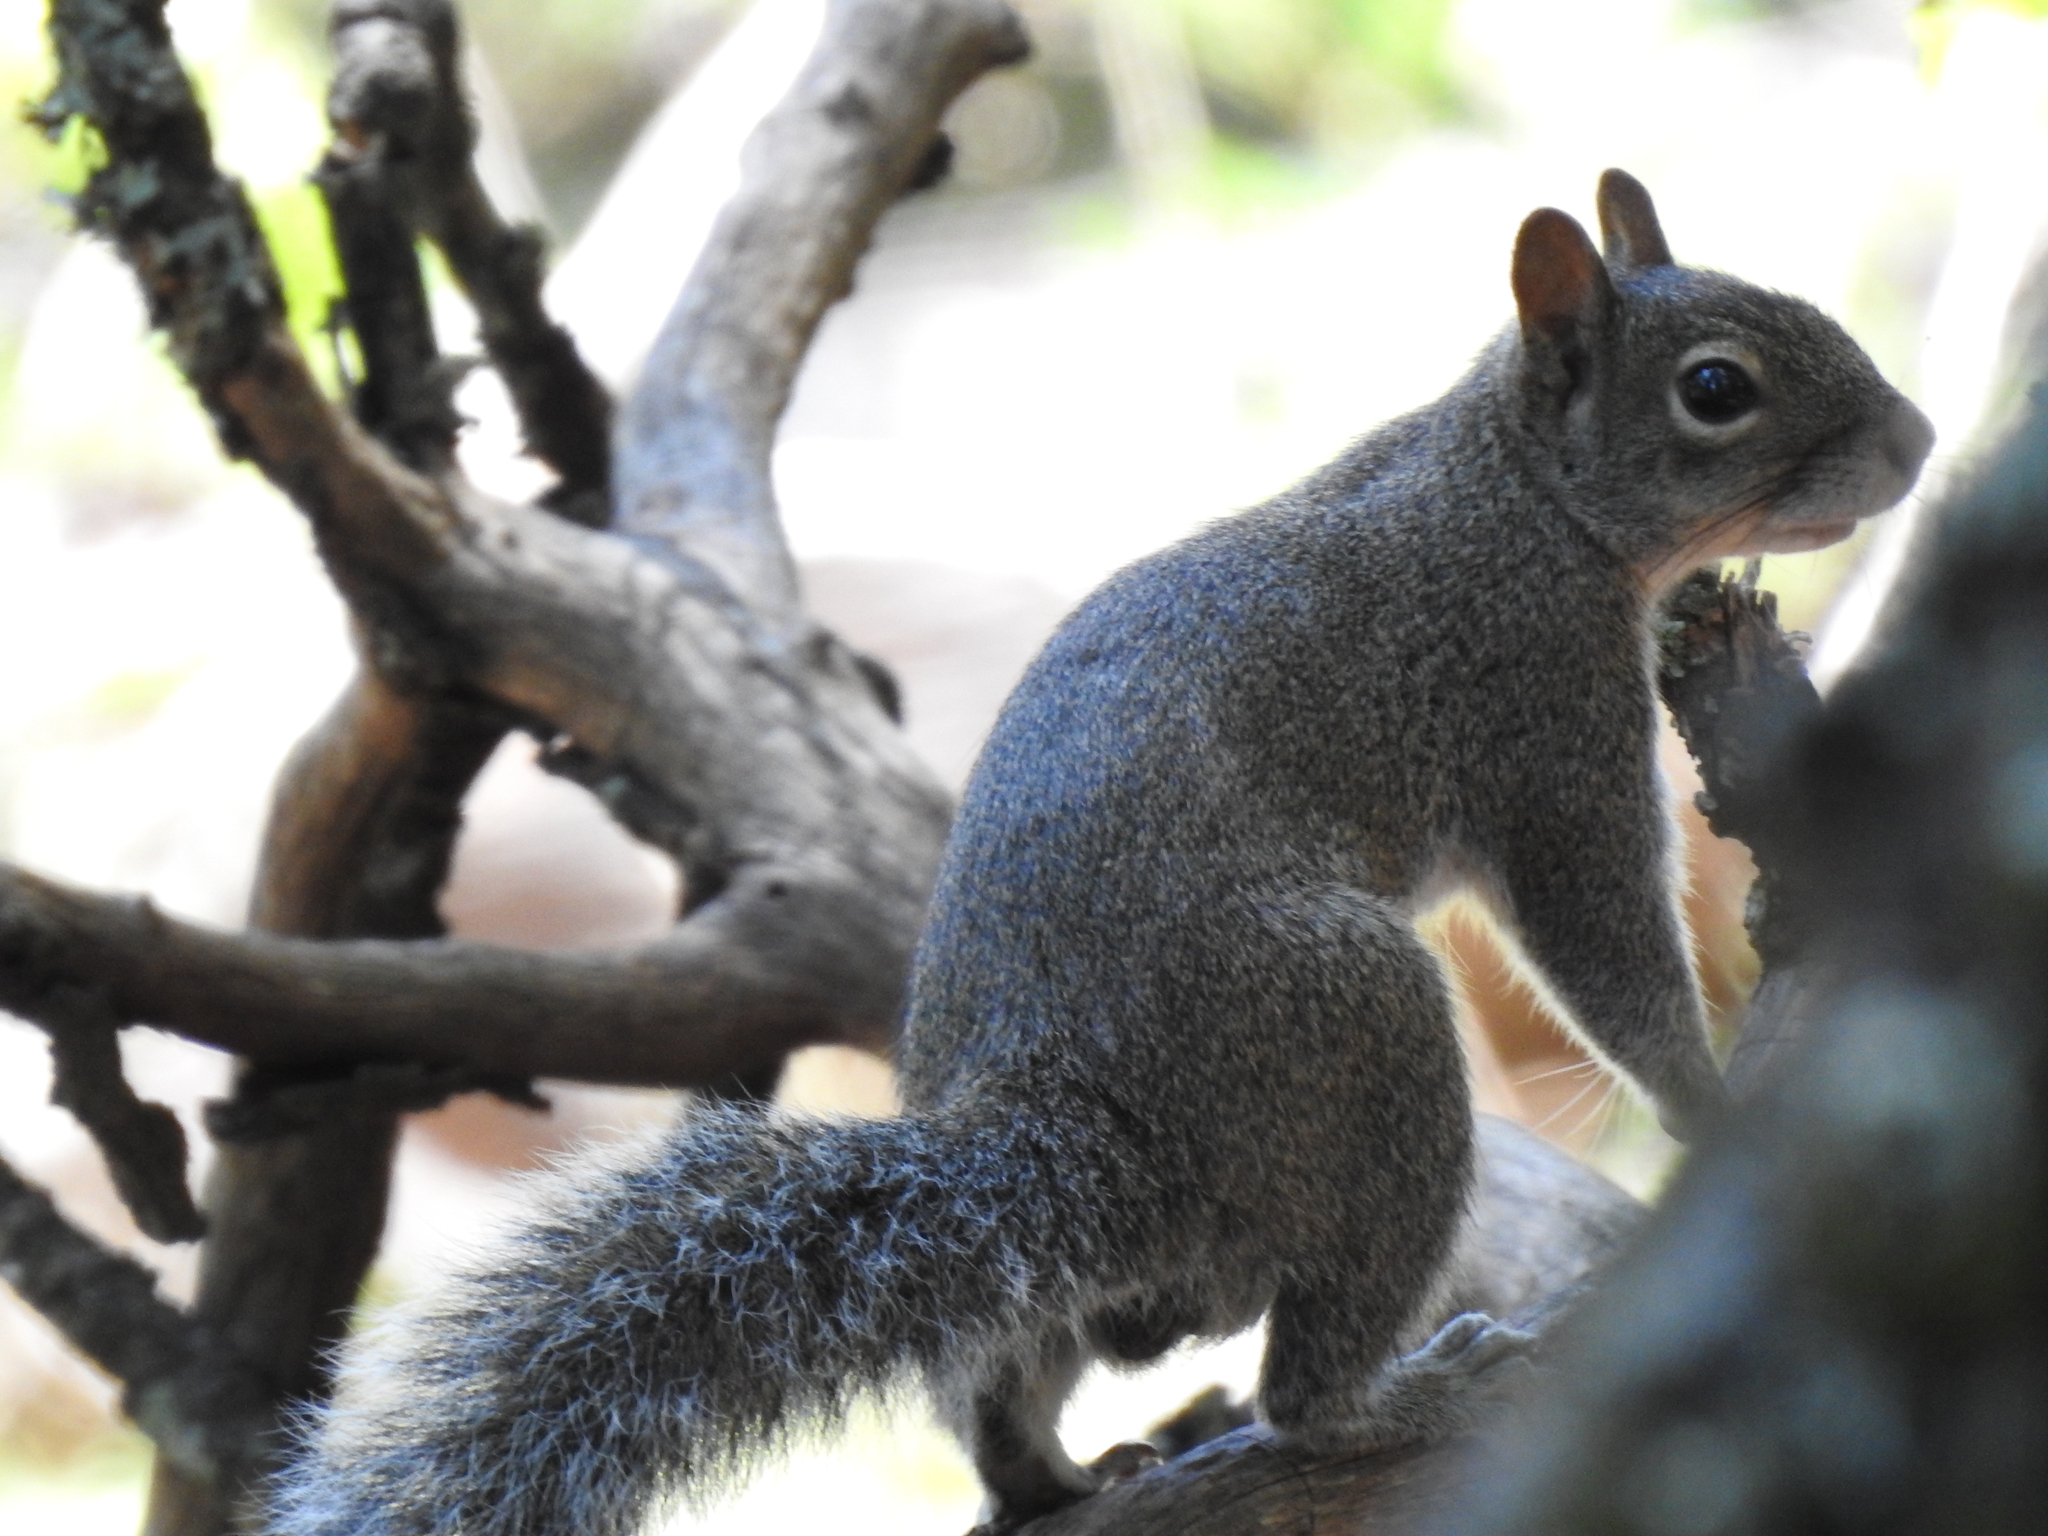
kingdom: Animalia
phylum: Chordata
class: Mammalia
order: Rodentia
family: Sciuridae
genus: Sciurus
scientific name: Sciurus alleni
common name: Allen's squirrel
